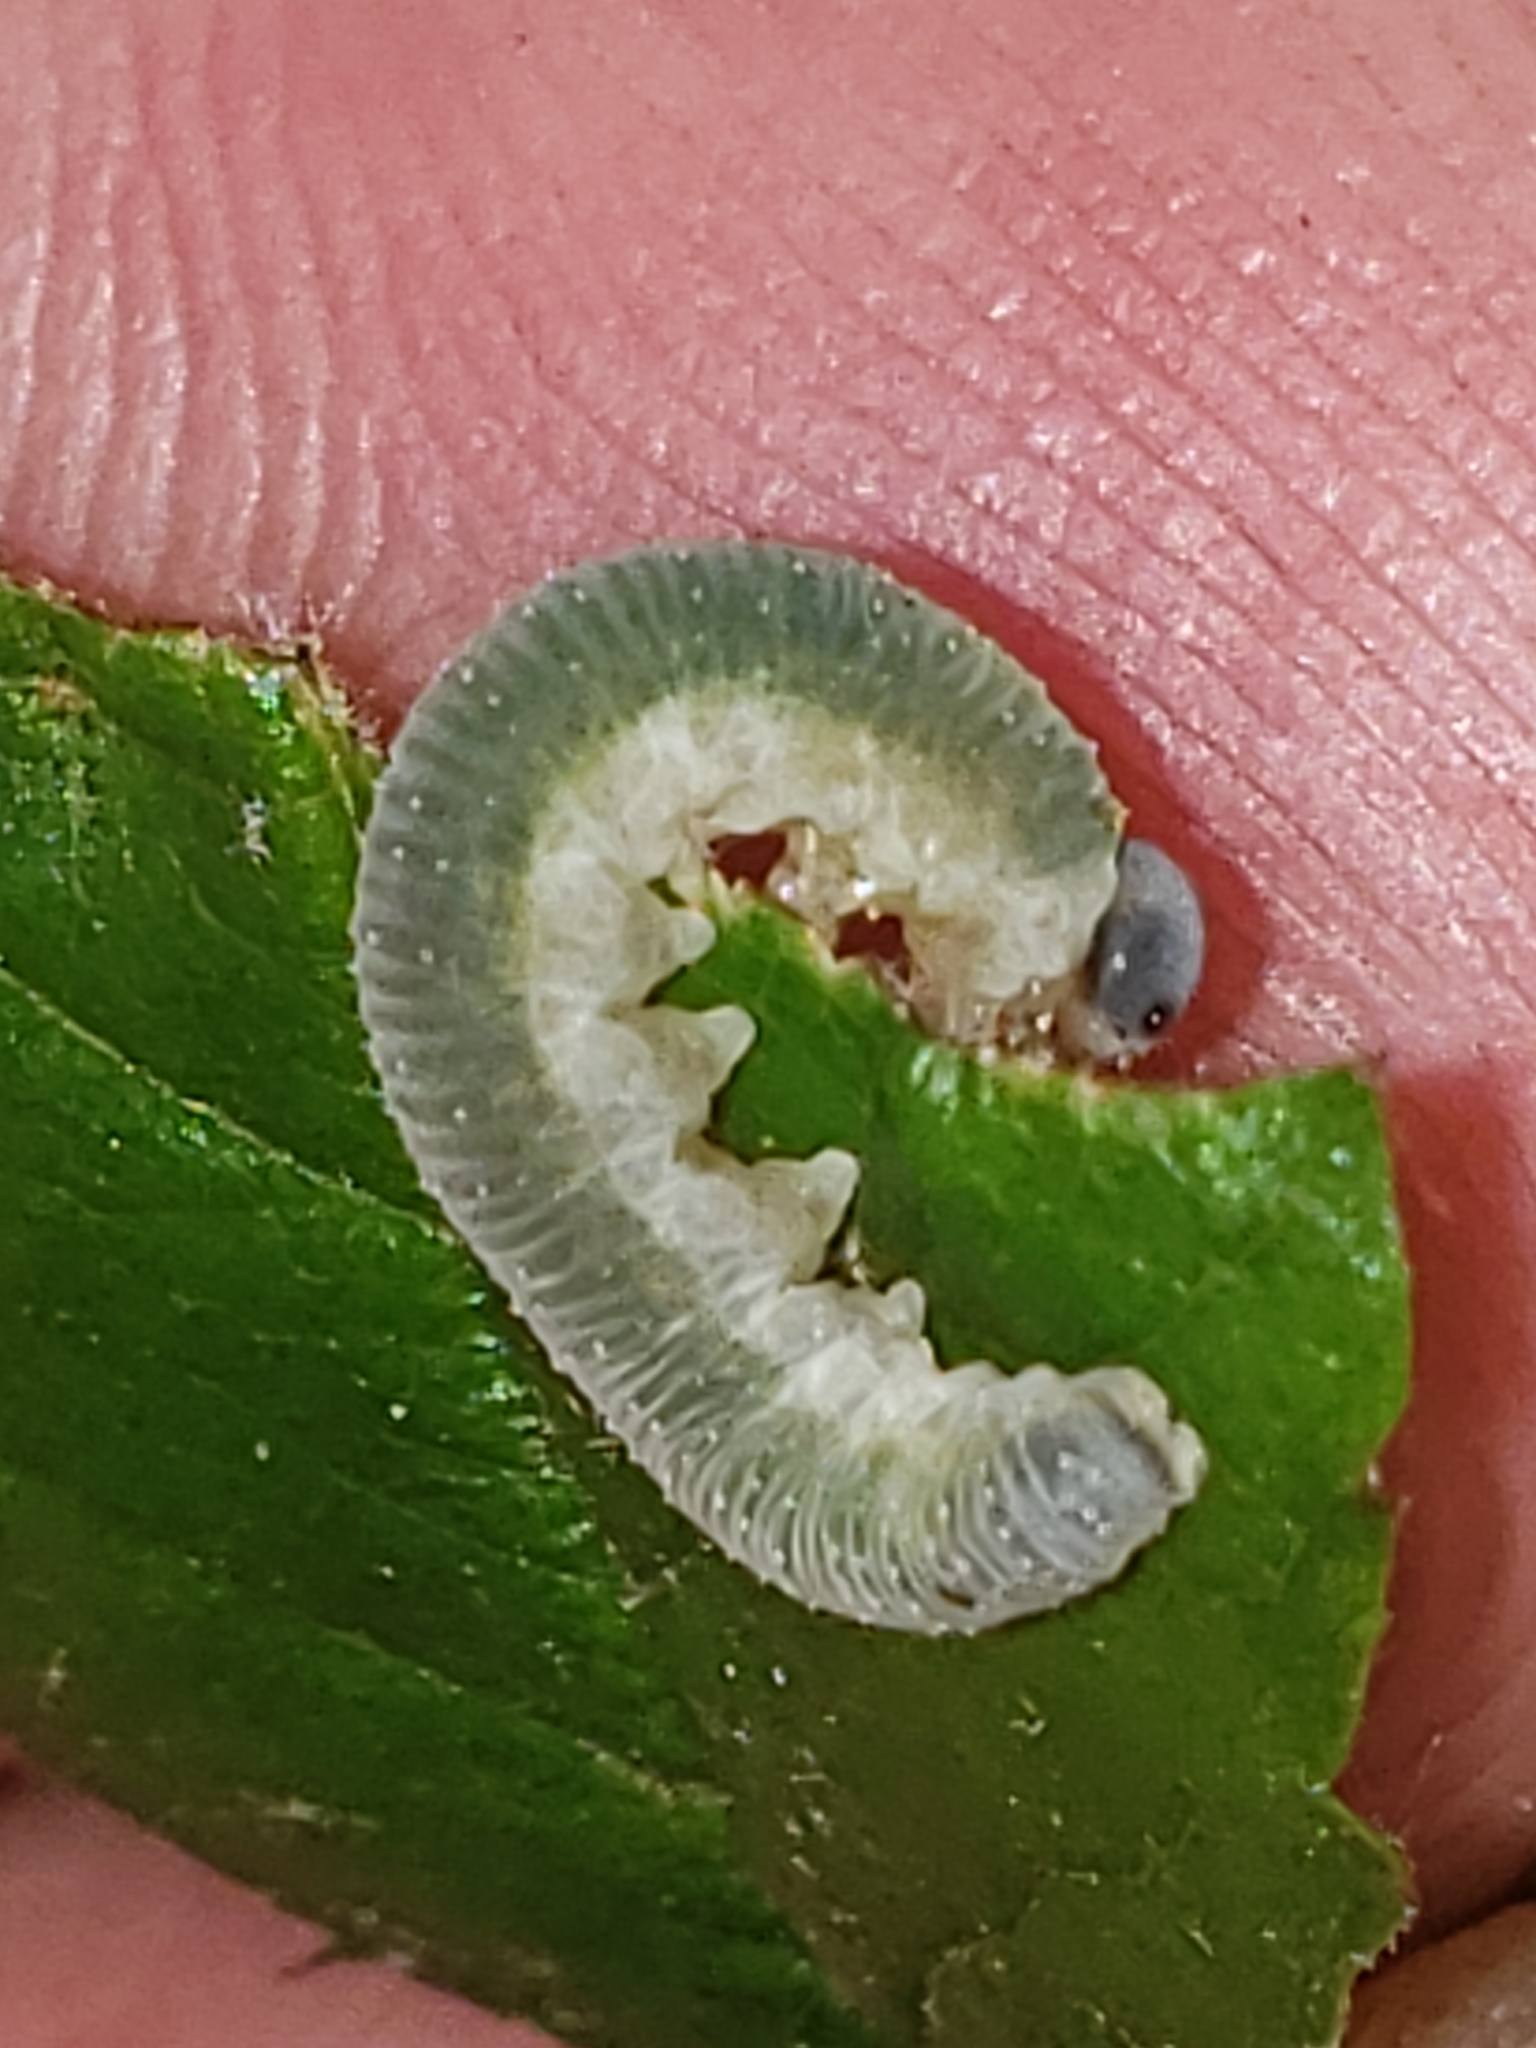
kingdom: Animalia
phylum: Arthropoda
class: Insecta
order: Hymenoptera
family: Tenthredinidae
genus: Allantus
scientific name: Allantus
